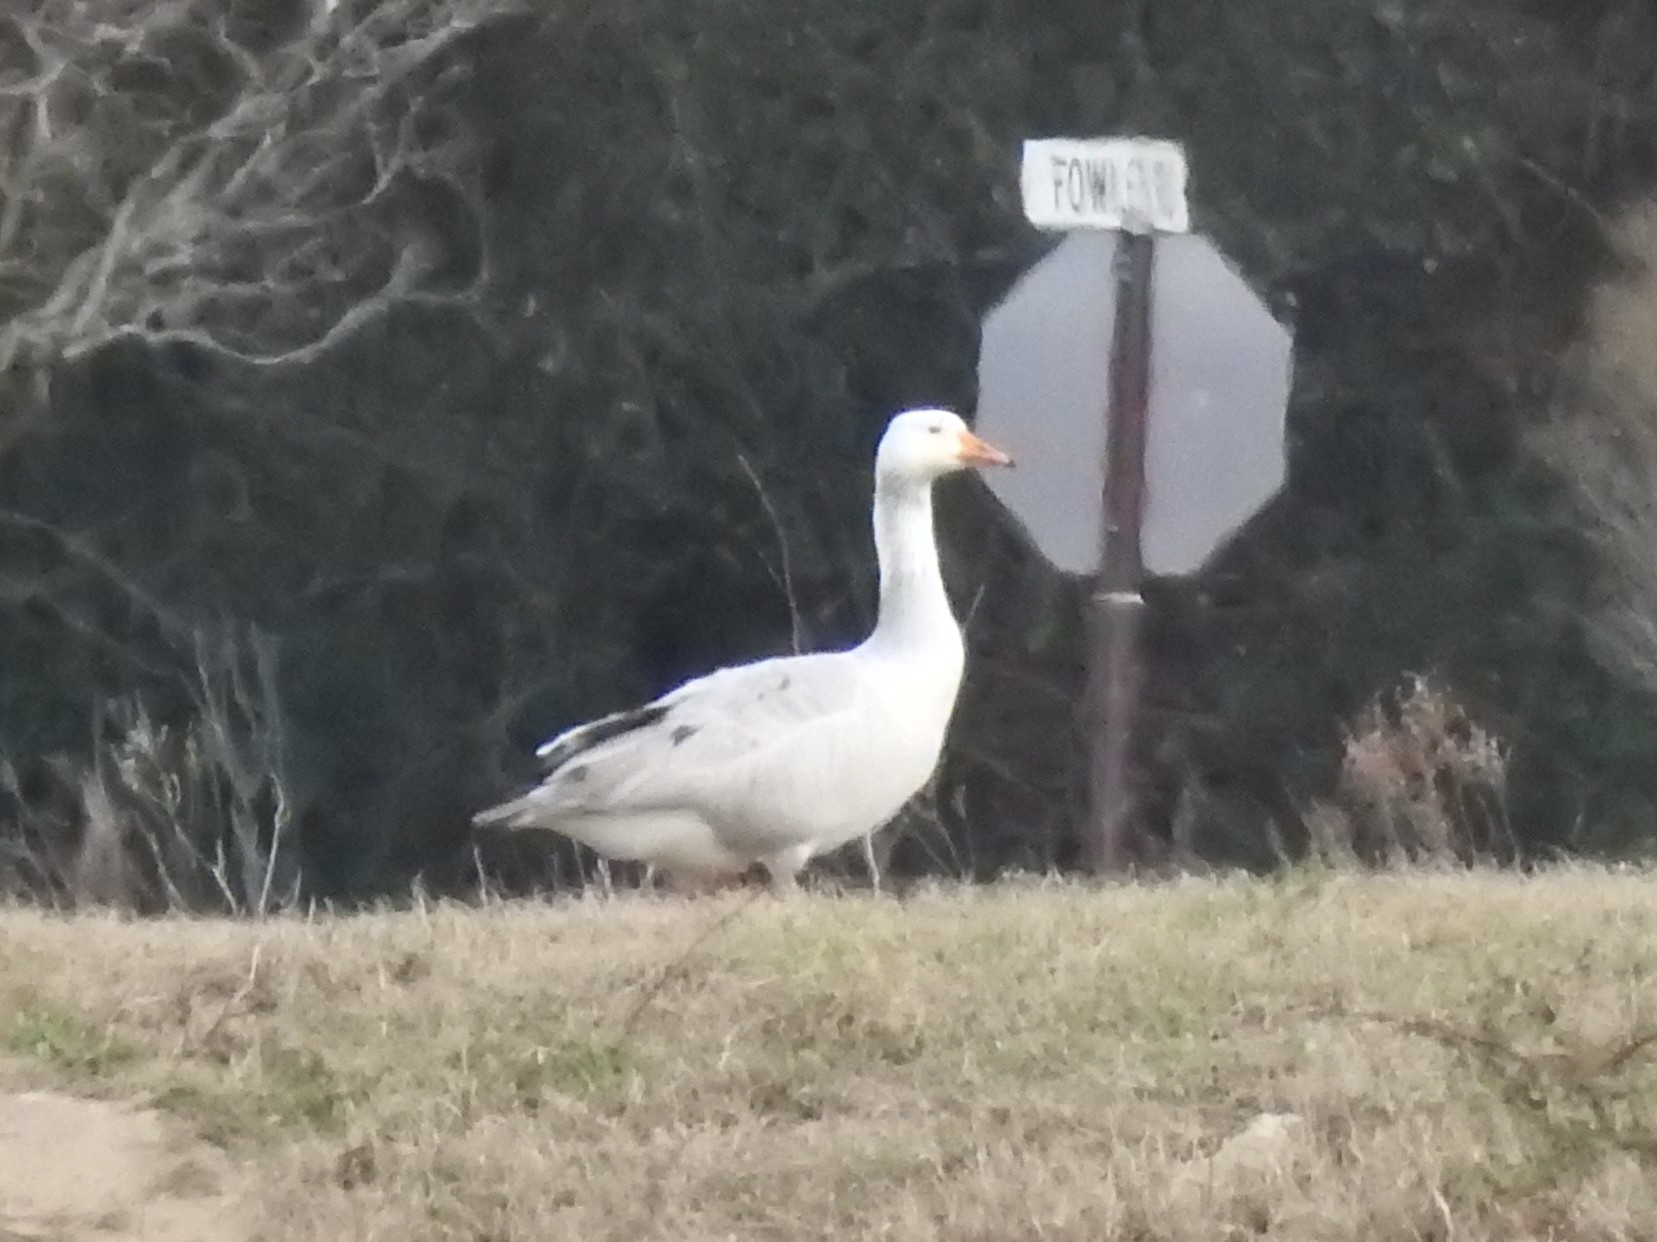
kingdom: Animalia
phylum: Chordata
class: Aves
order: Anseriformes
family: Anatidae
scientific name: Anatidae
